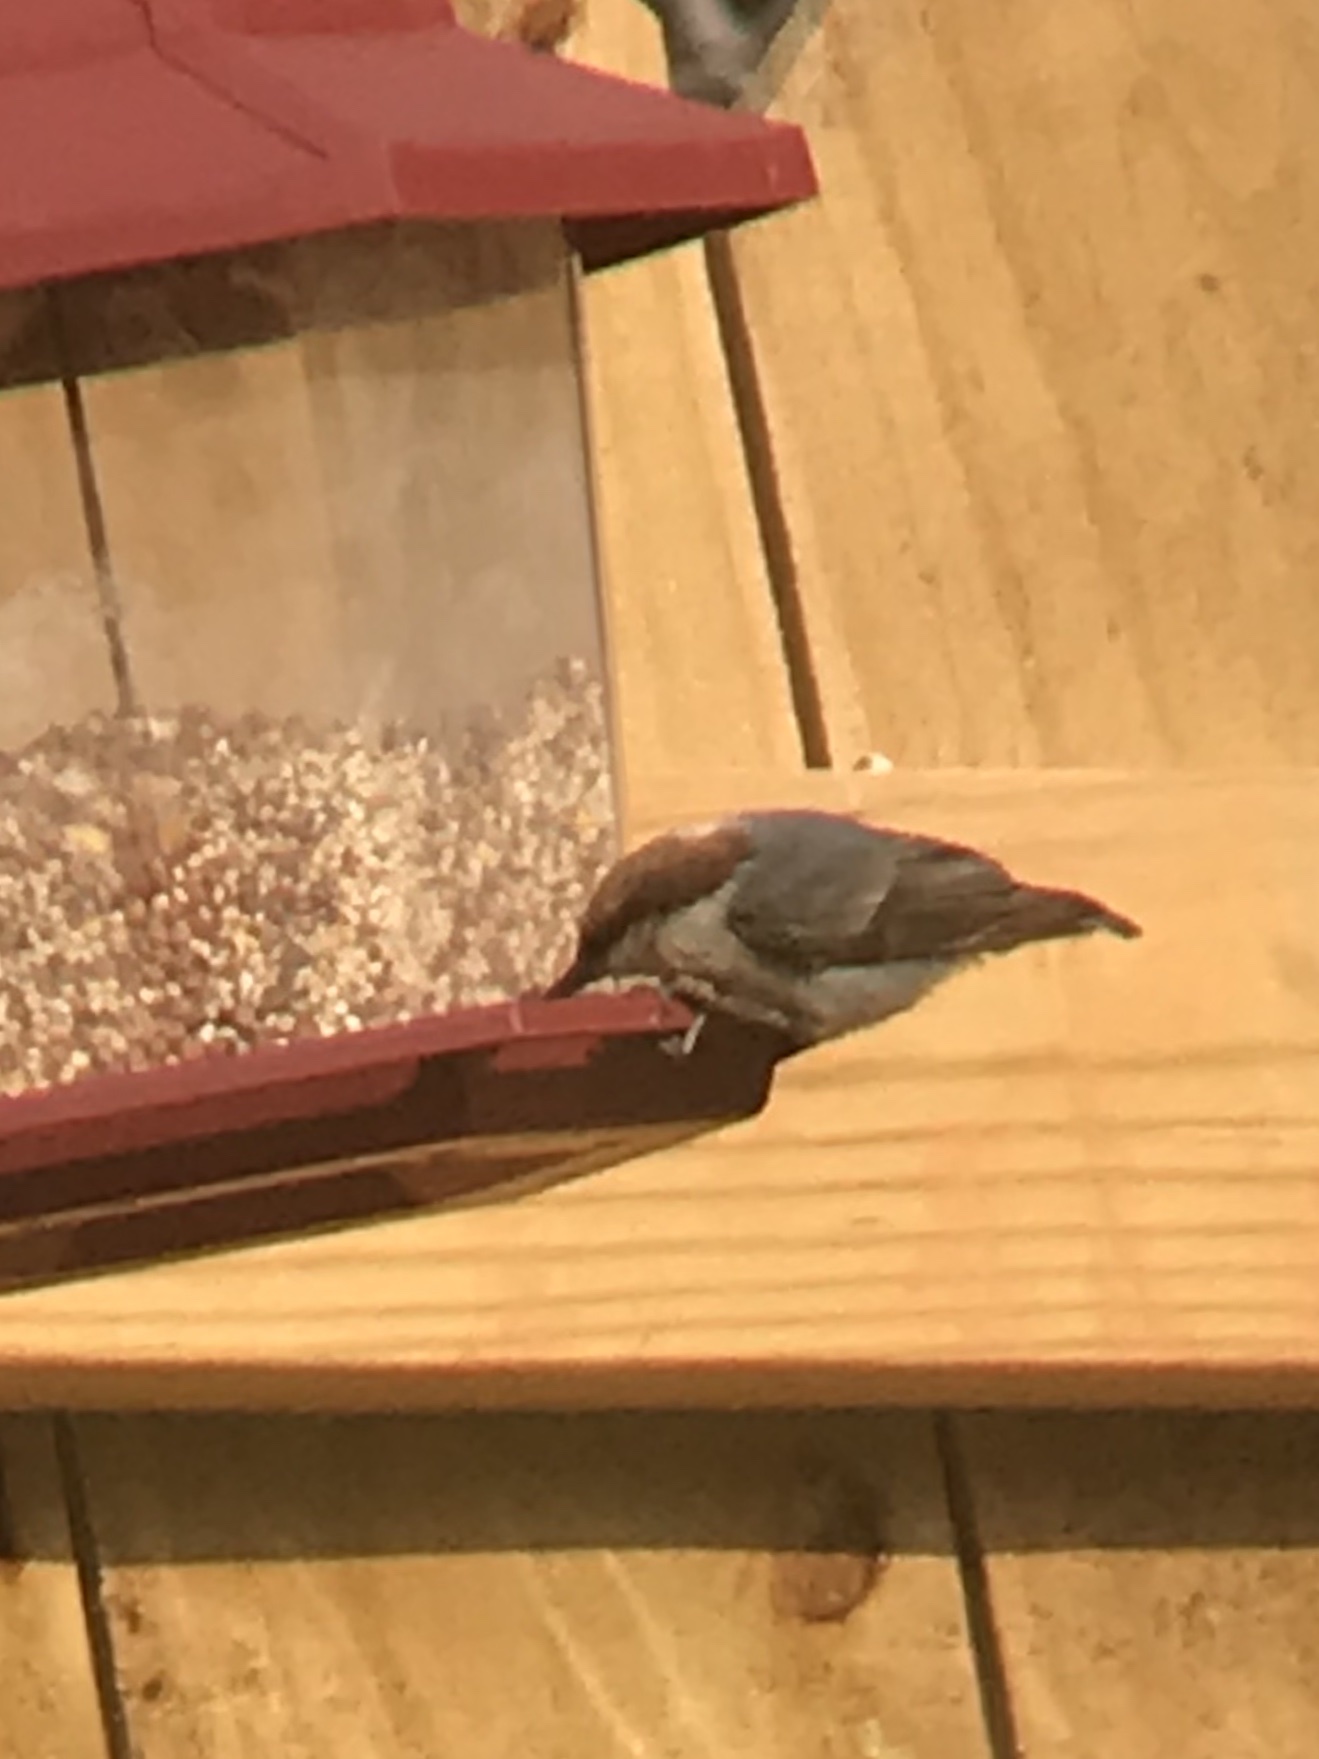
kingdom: Animalia
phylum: Chordata
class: Aves
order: Passeriformes
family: Sittidae
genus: Sitta
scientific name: Sitta pusilla
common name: Brown-headed nuthatch
